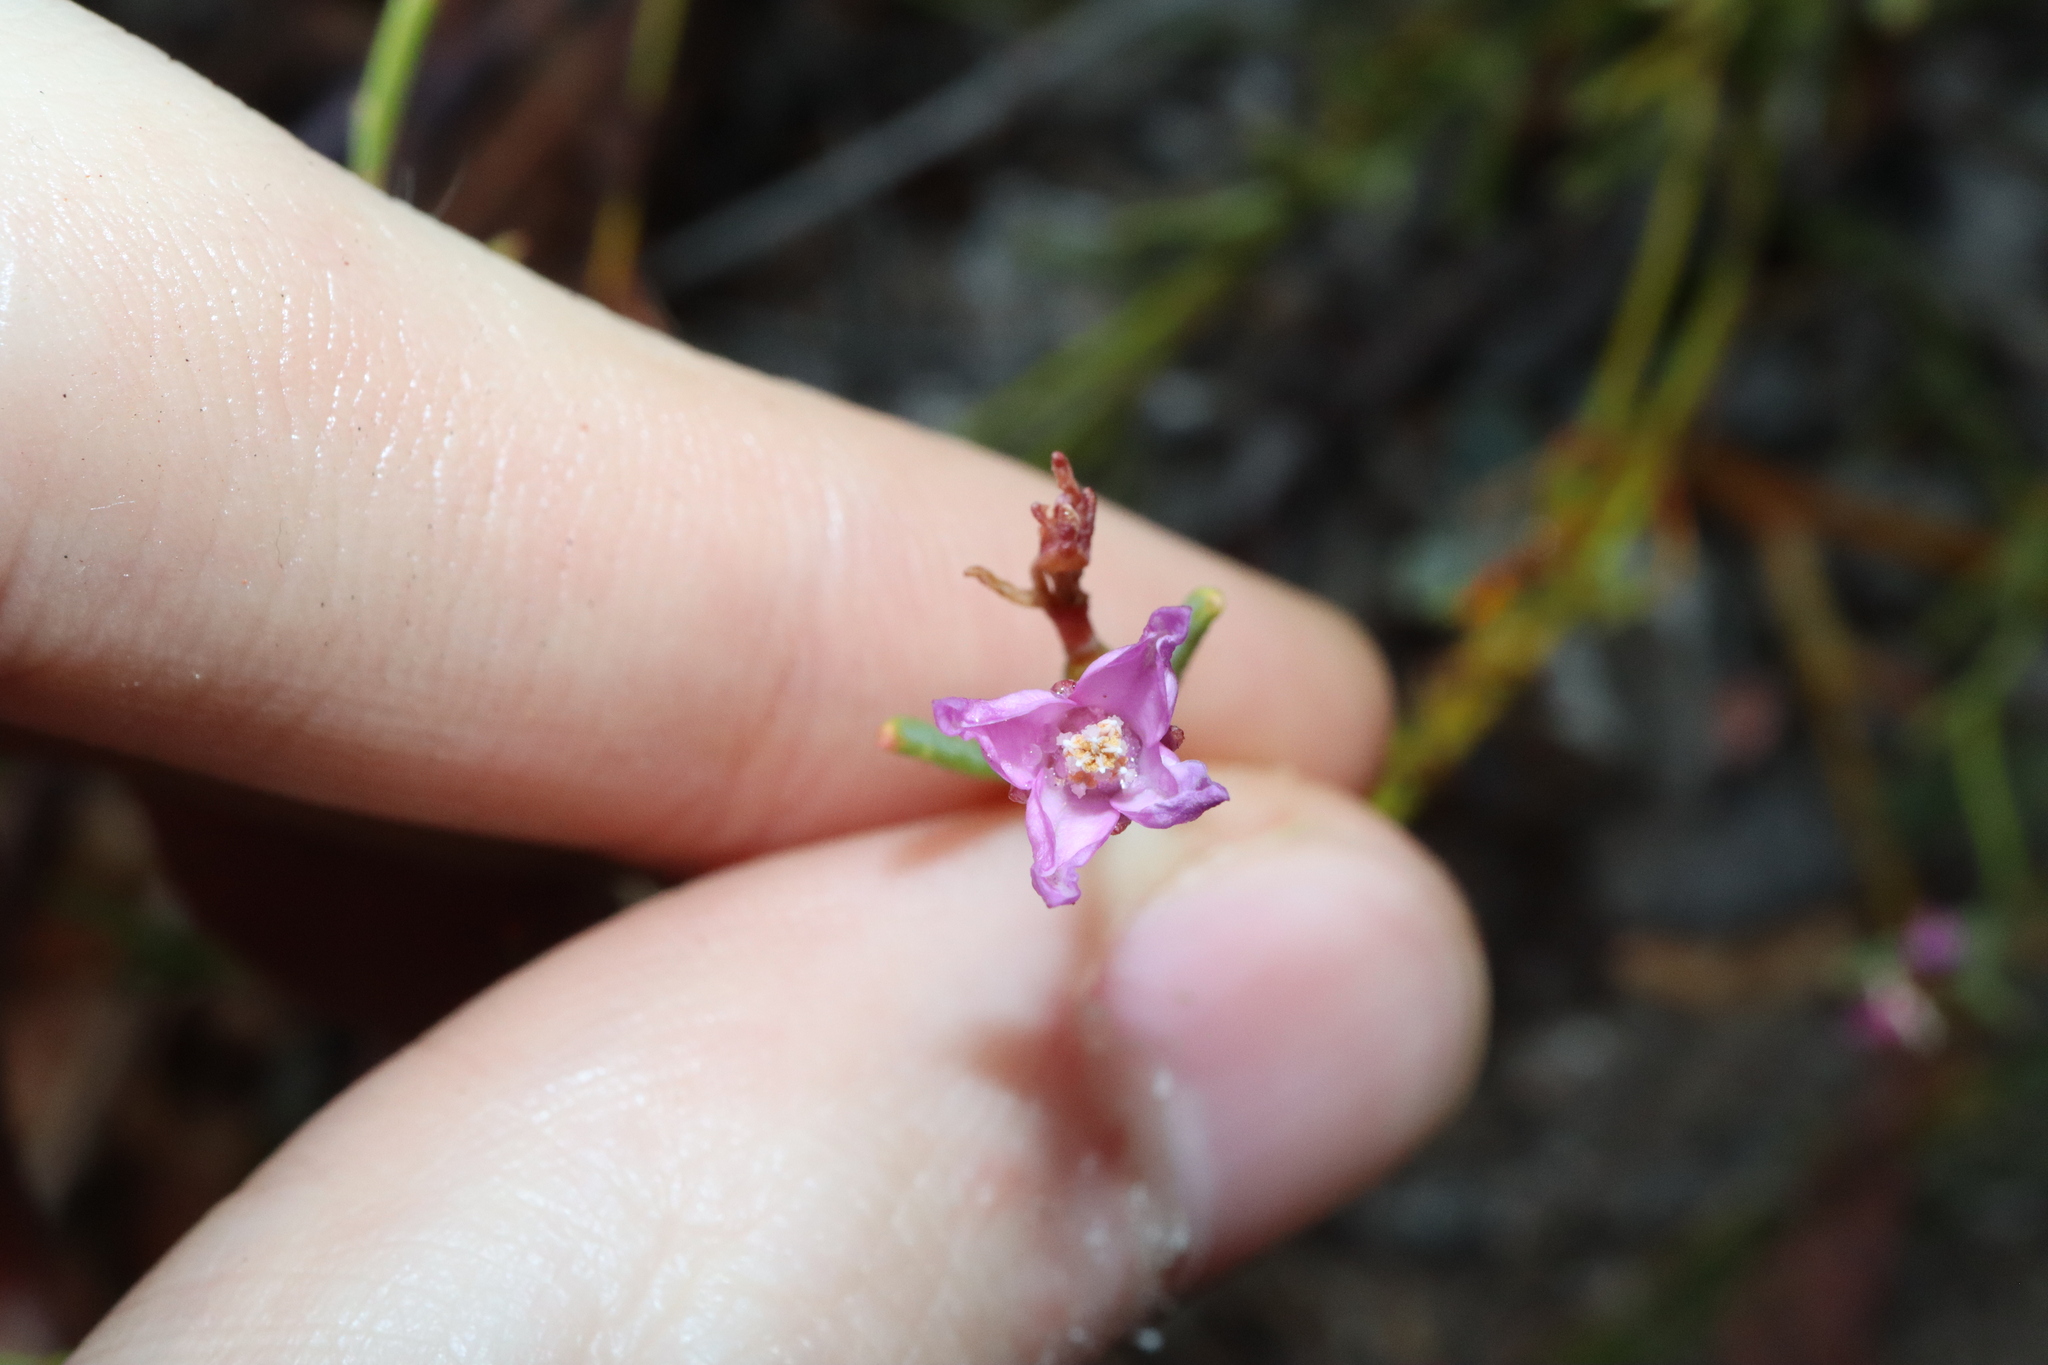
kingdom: Plantae
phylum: Tracheophyta
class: Magnoliopsida
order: Sapindales
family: Rutaceae
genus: Boronia
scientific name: Boronia spathulata
